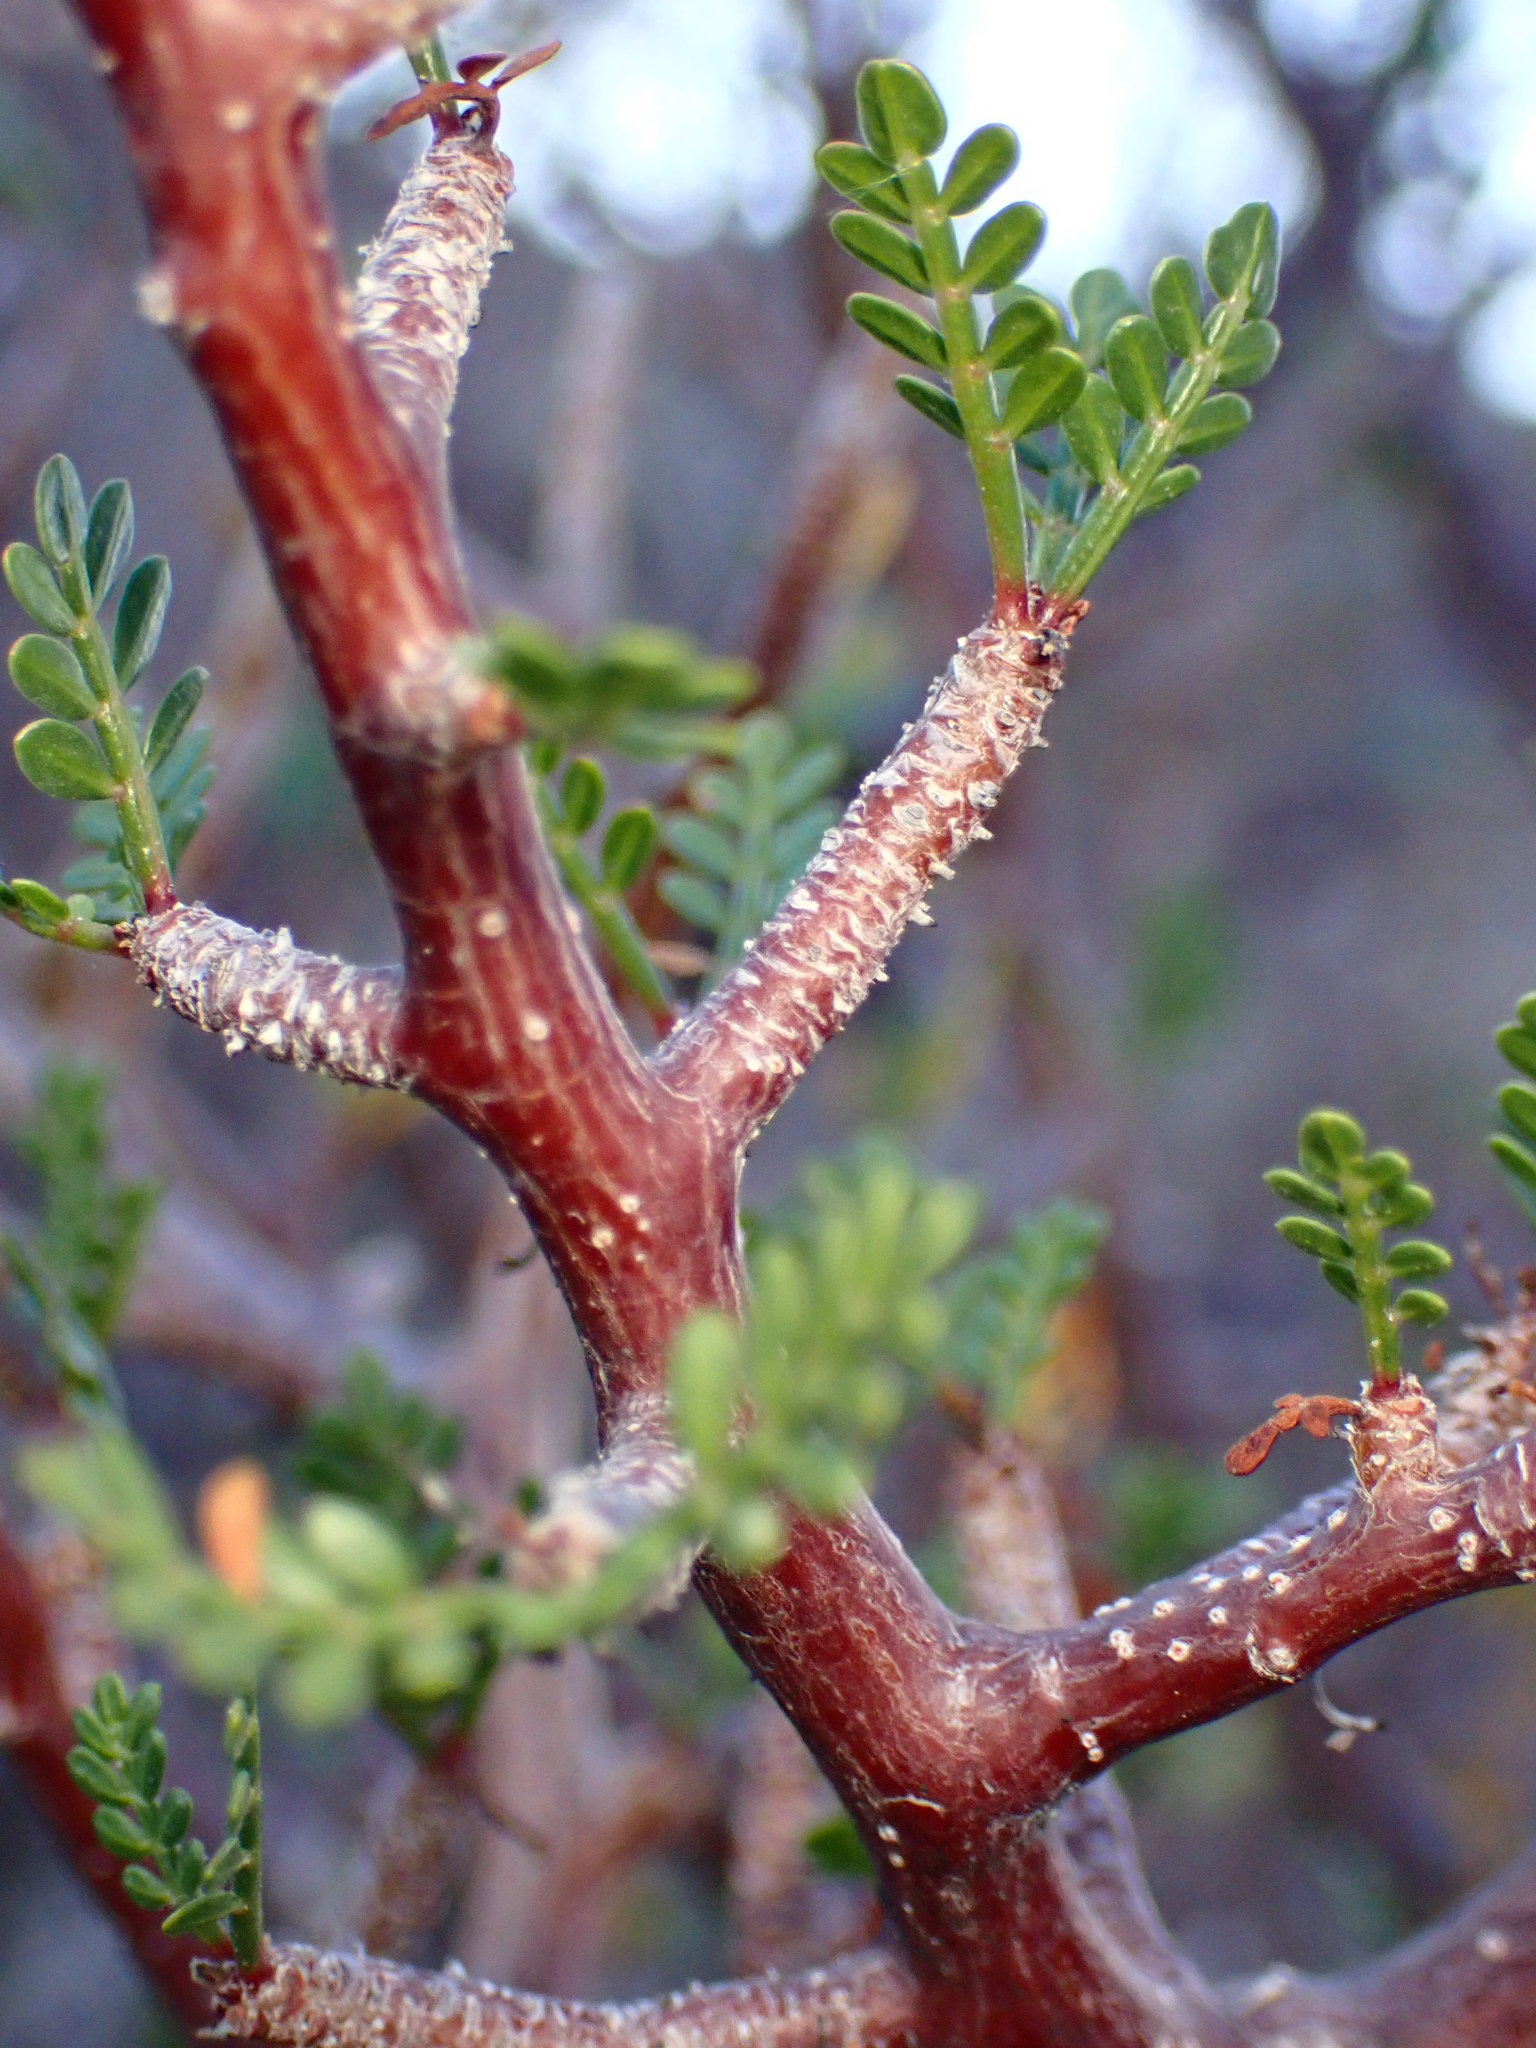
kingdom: Plantae
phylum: Tracheophyta
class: Magnoliopsida
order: Sapindales
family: Burseraceae
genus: Bursera
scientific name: Bursera microphylla
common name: Elephant tree
